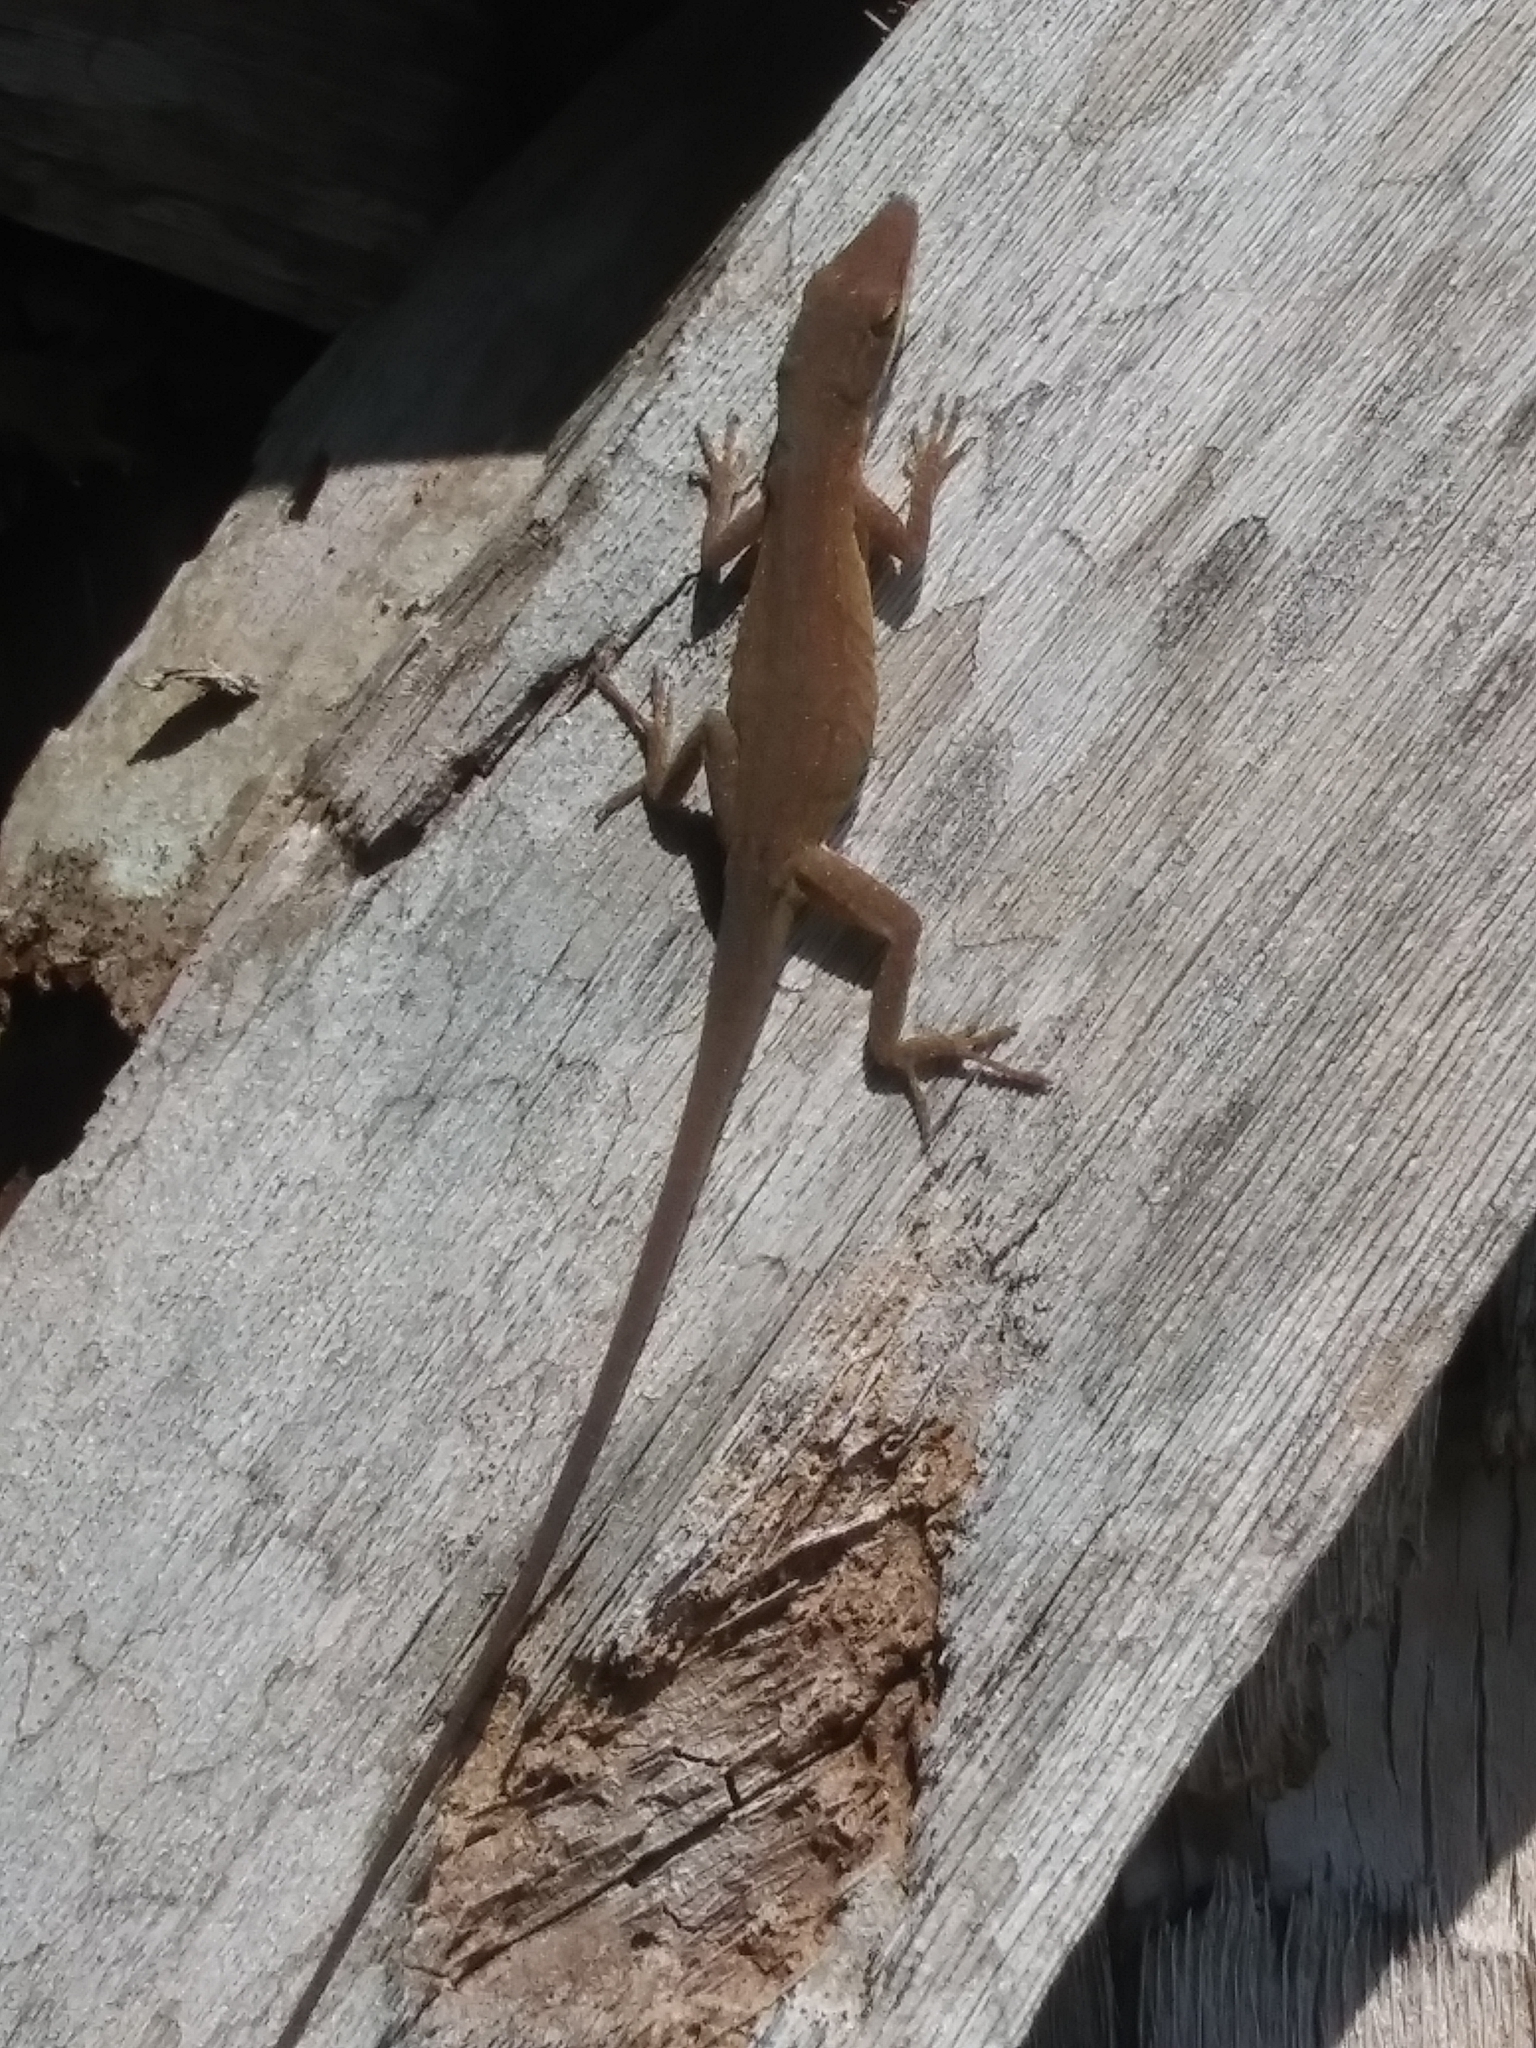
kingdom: Animalia
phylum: Chordata
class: Squamata
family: Dactyloidae
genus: Anolis
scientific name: Anolis carolinensis
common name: Green anole
